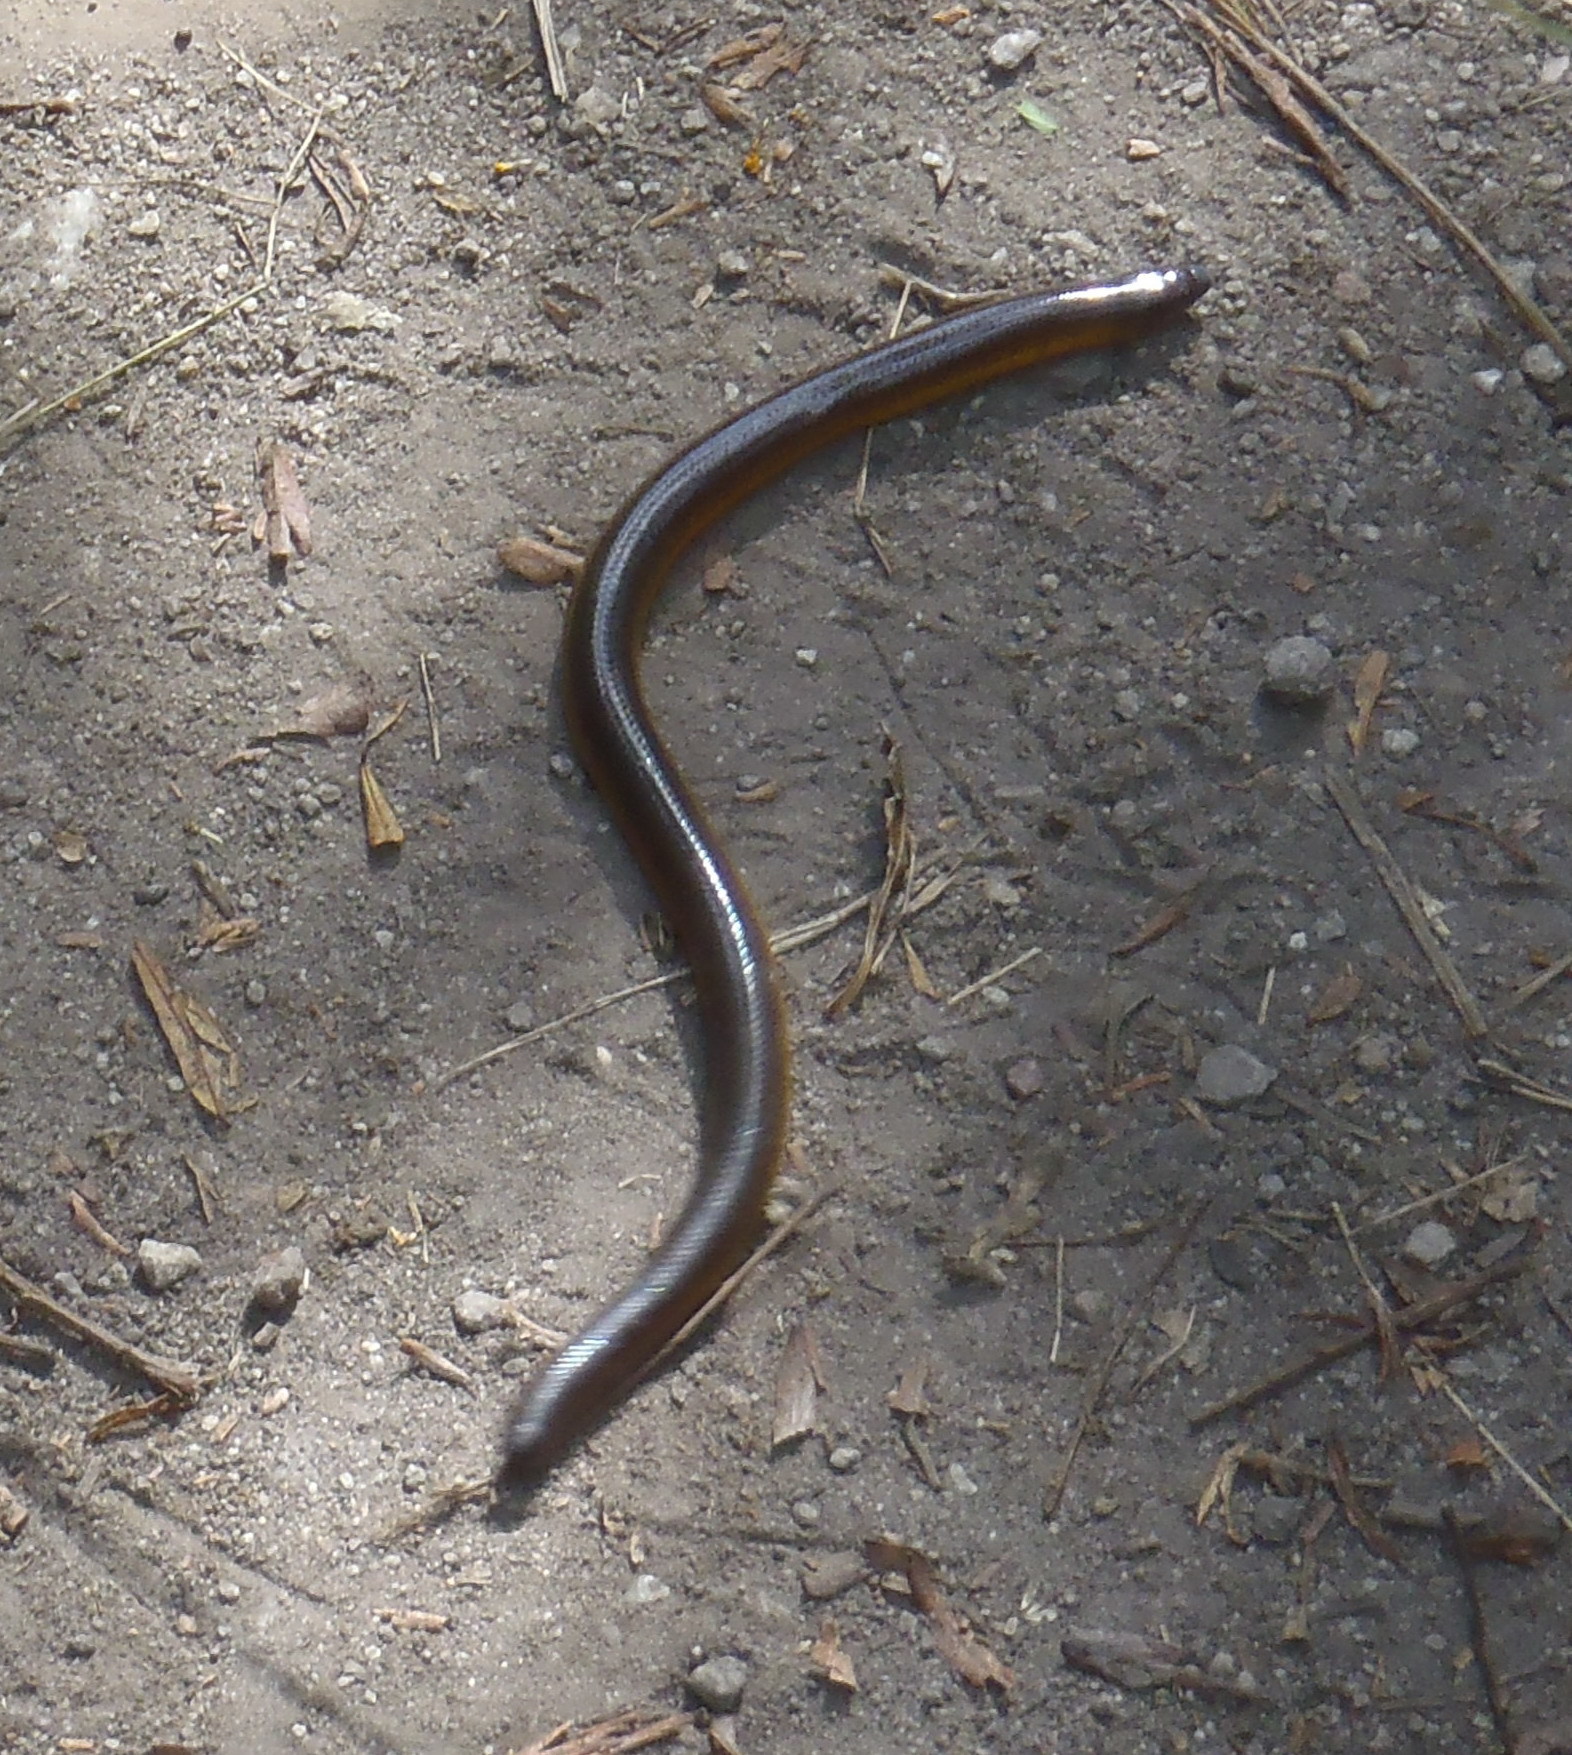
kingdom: Animalia
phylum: Chordata
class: Squamata
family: Scincidae
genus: Acontias
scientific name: Acontias meleagris
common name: Cape legless skink
